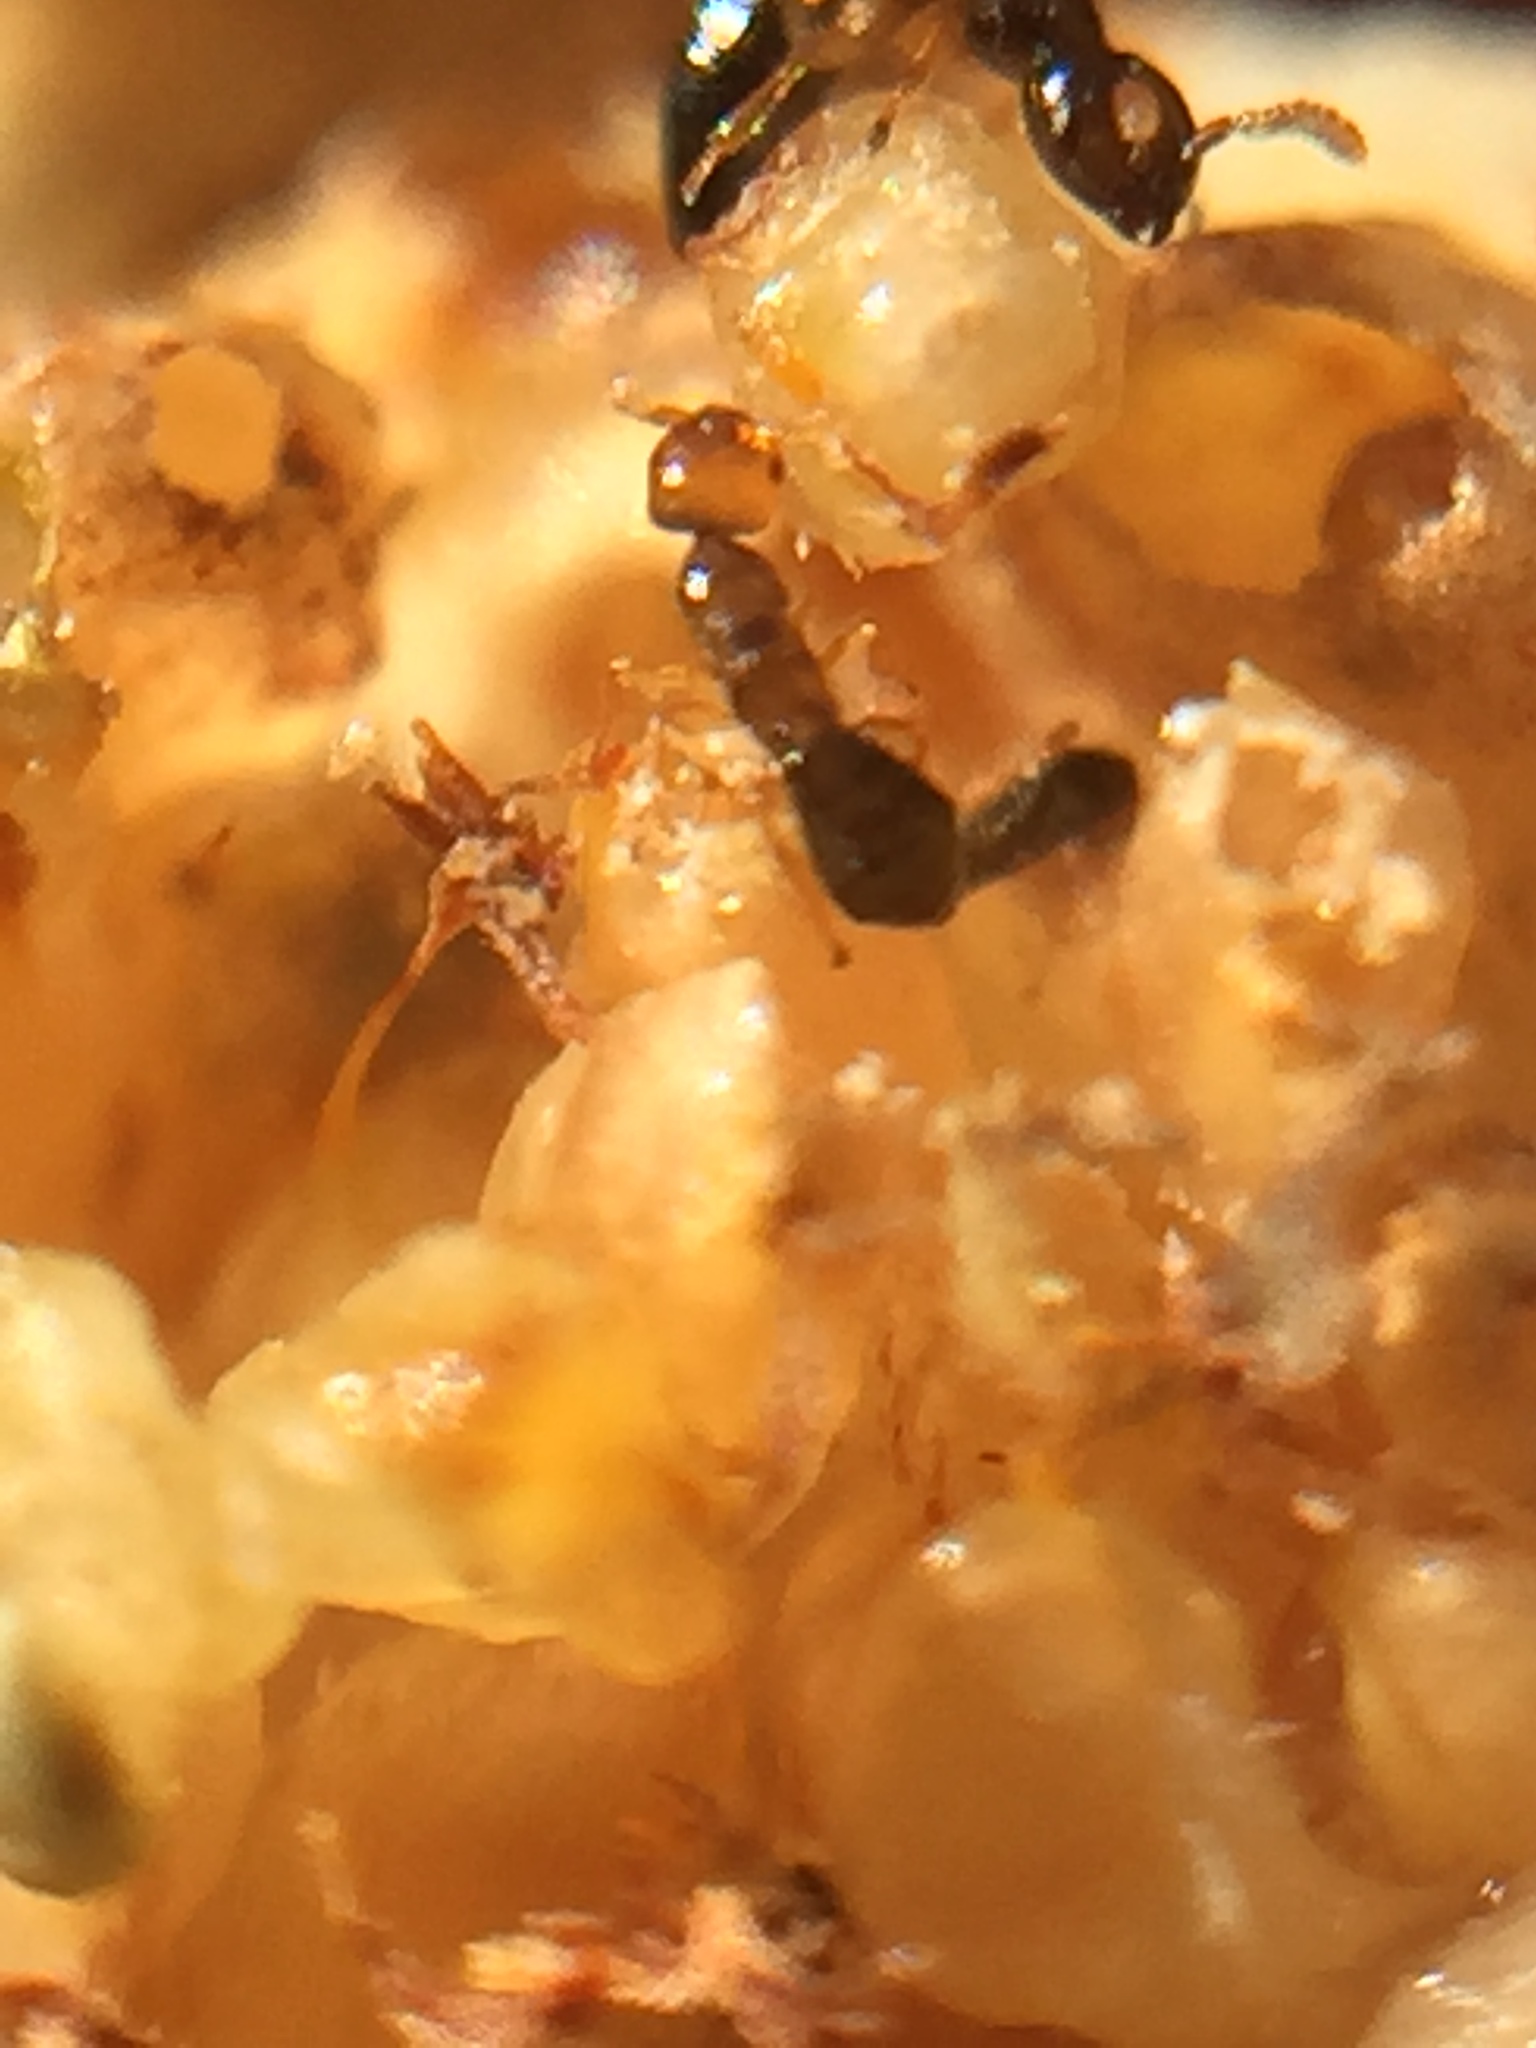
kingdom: Animalia
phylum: Arthropoda
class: Insecta
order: Hymenoptera
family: Agaonidae
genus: Pseudidarnes
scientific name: Pseudidarnes minerva
